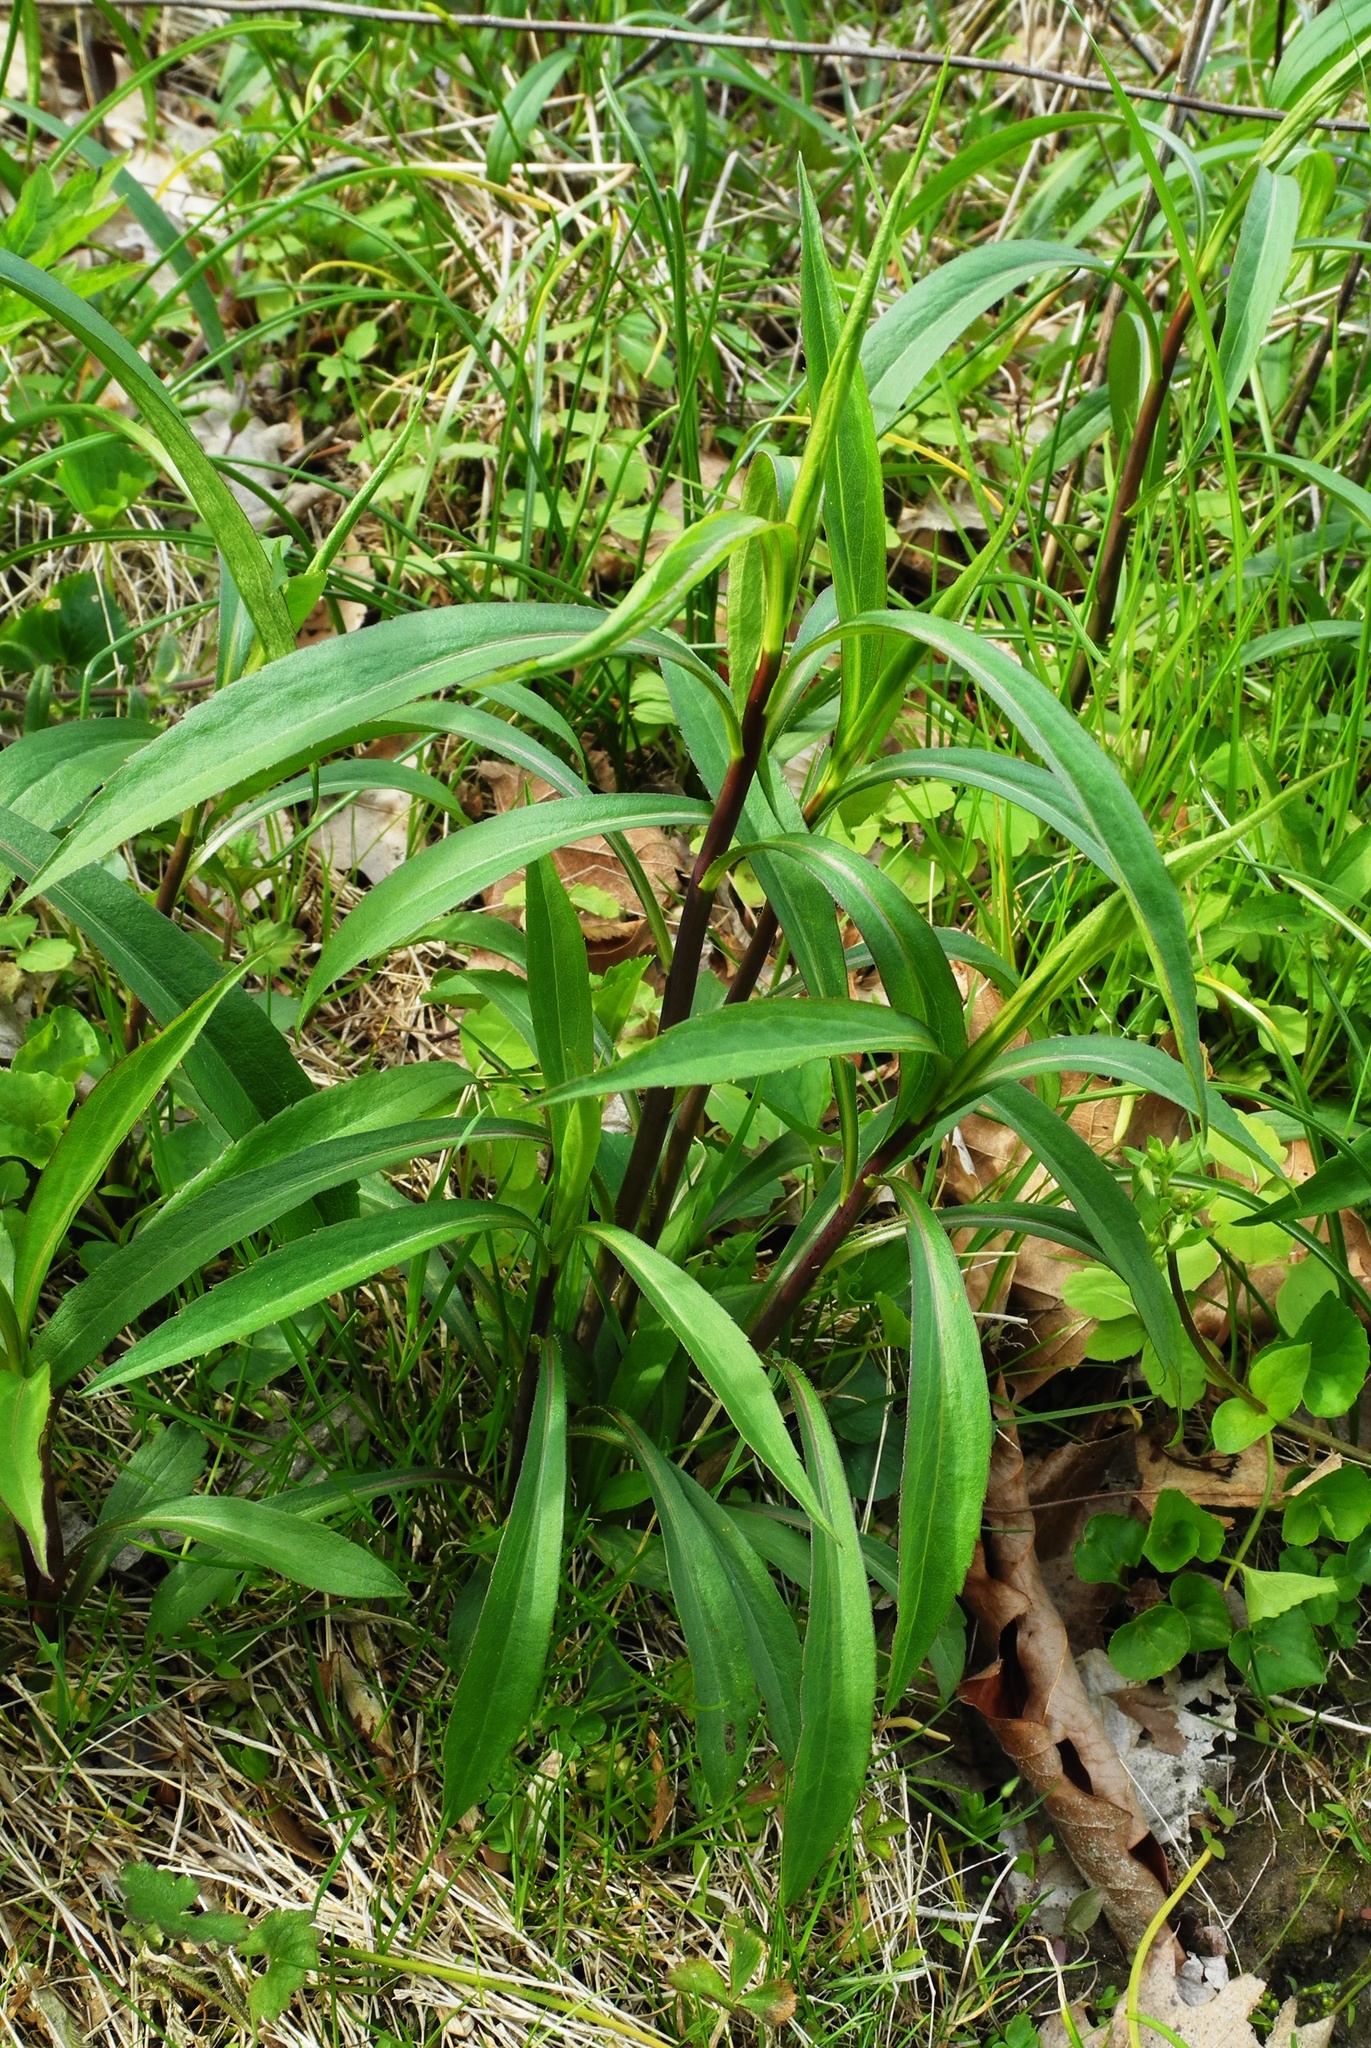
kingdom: Plantae
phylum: Tracheophyta
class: Magnoliopsida
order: Asterales
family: Asteraceae
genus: Solidago
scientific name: Solidago gigantea
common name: Giant goldenrod
